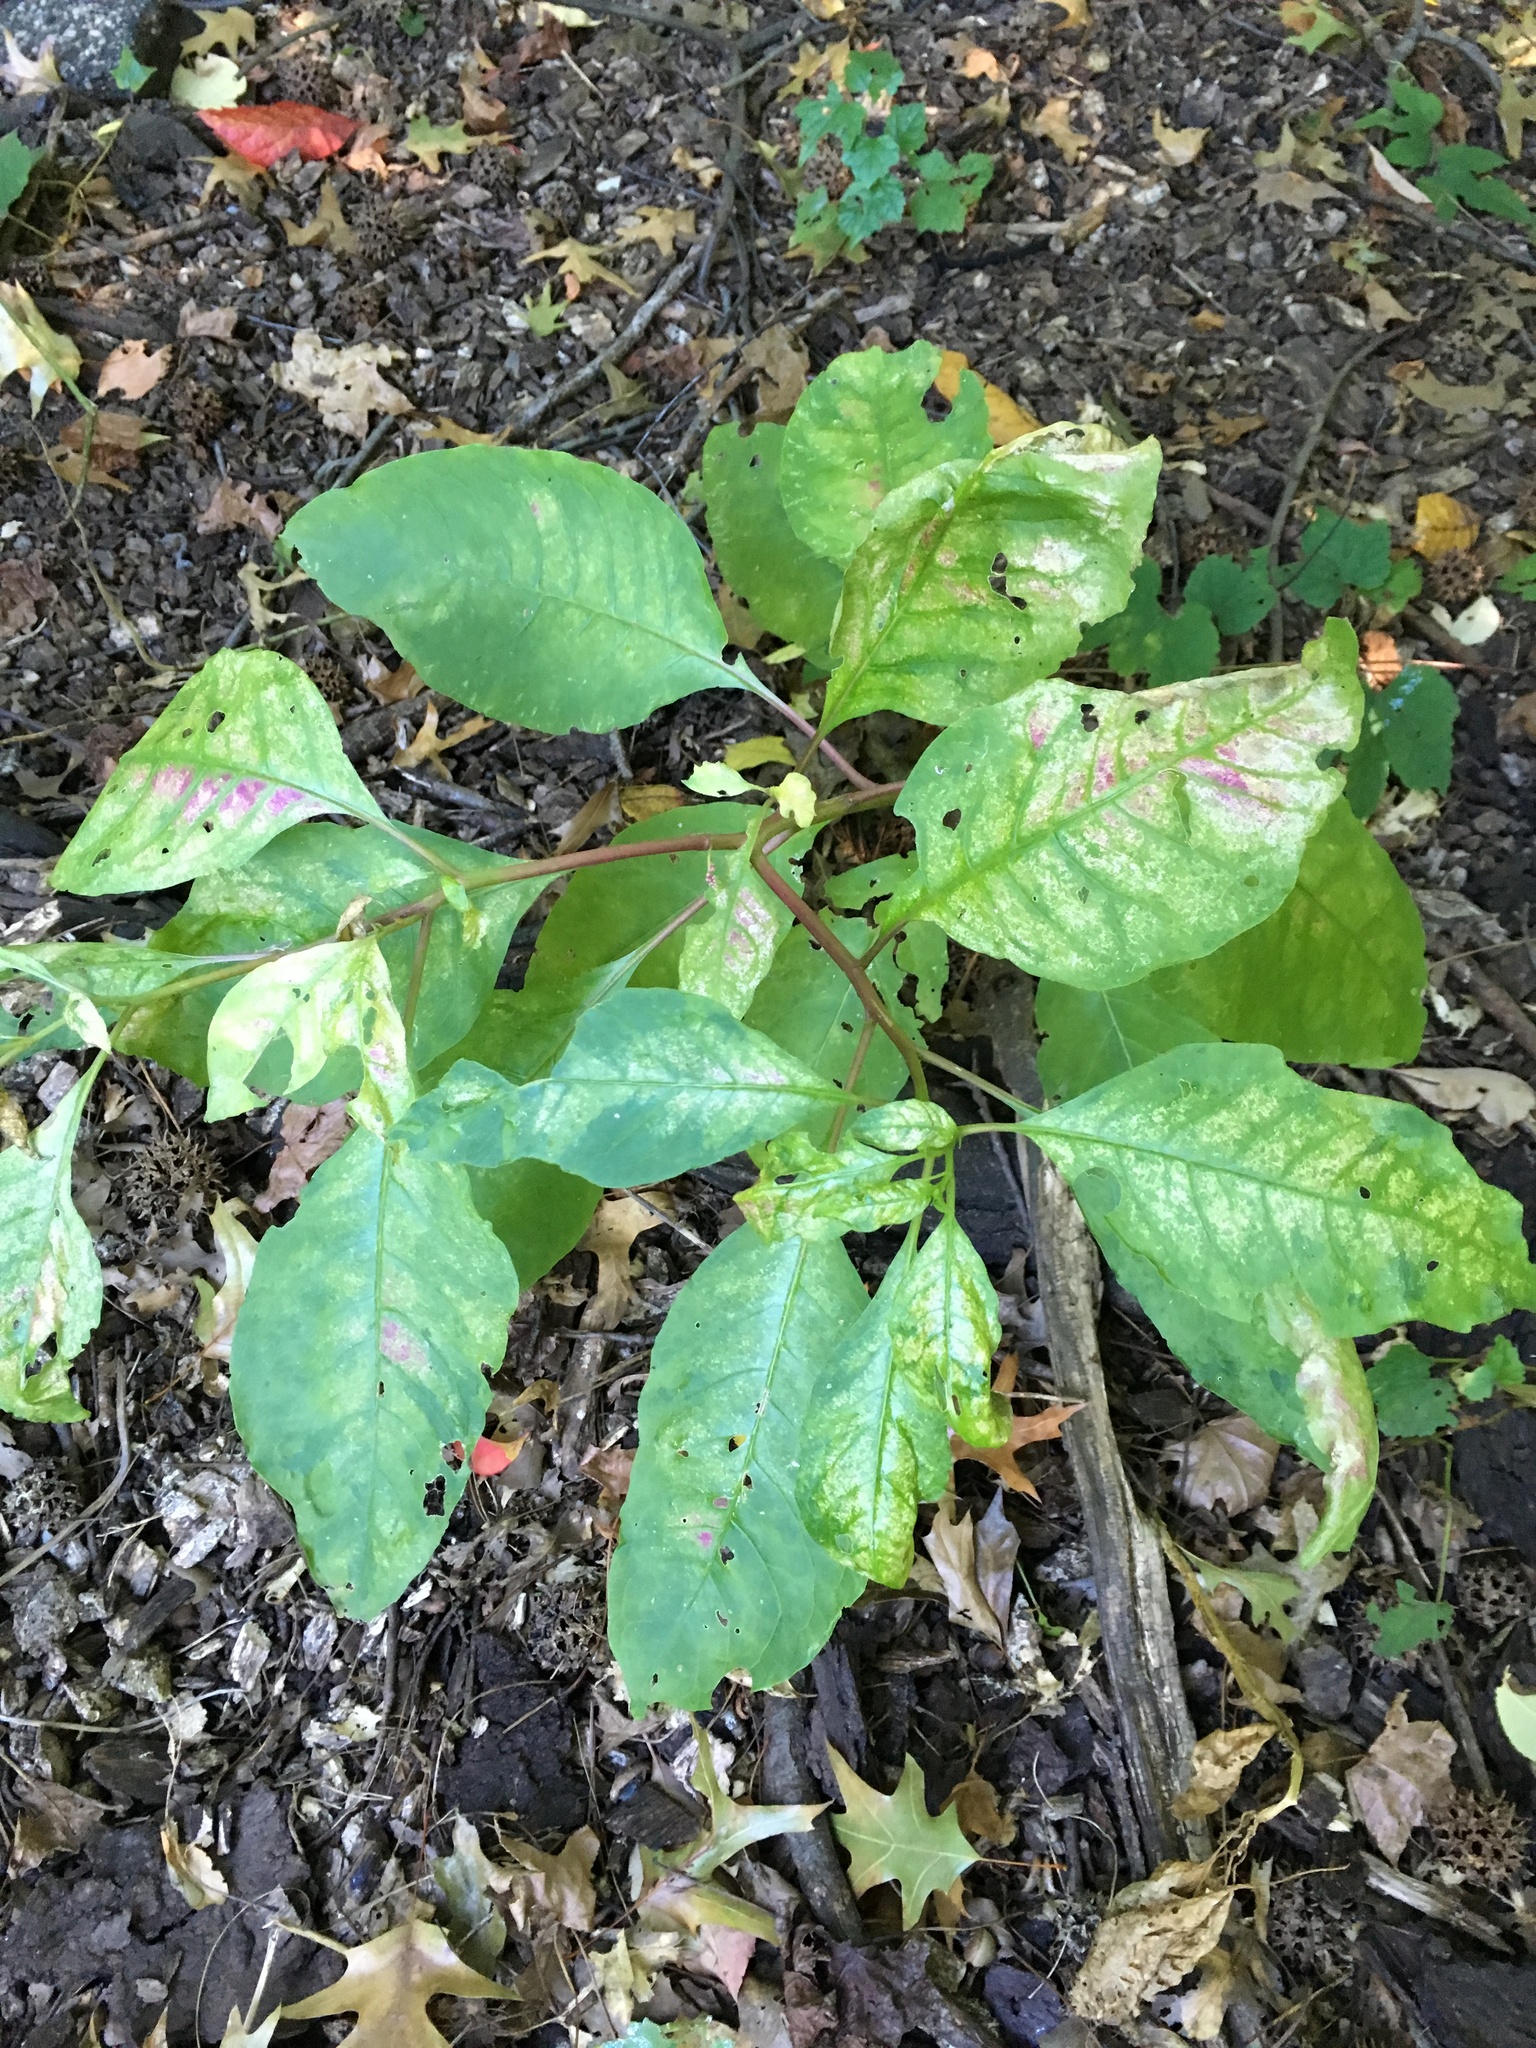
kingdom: Plantae
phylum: Tracheophyta
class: Magnoliopsida
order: Caryophyllales
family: Phytolaccaceae
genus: Phytolacca
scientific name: Phytolacca americana
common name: American pokeweed
